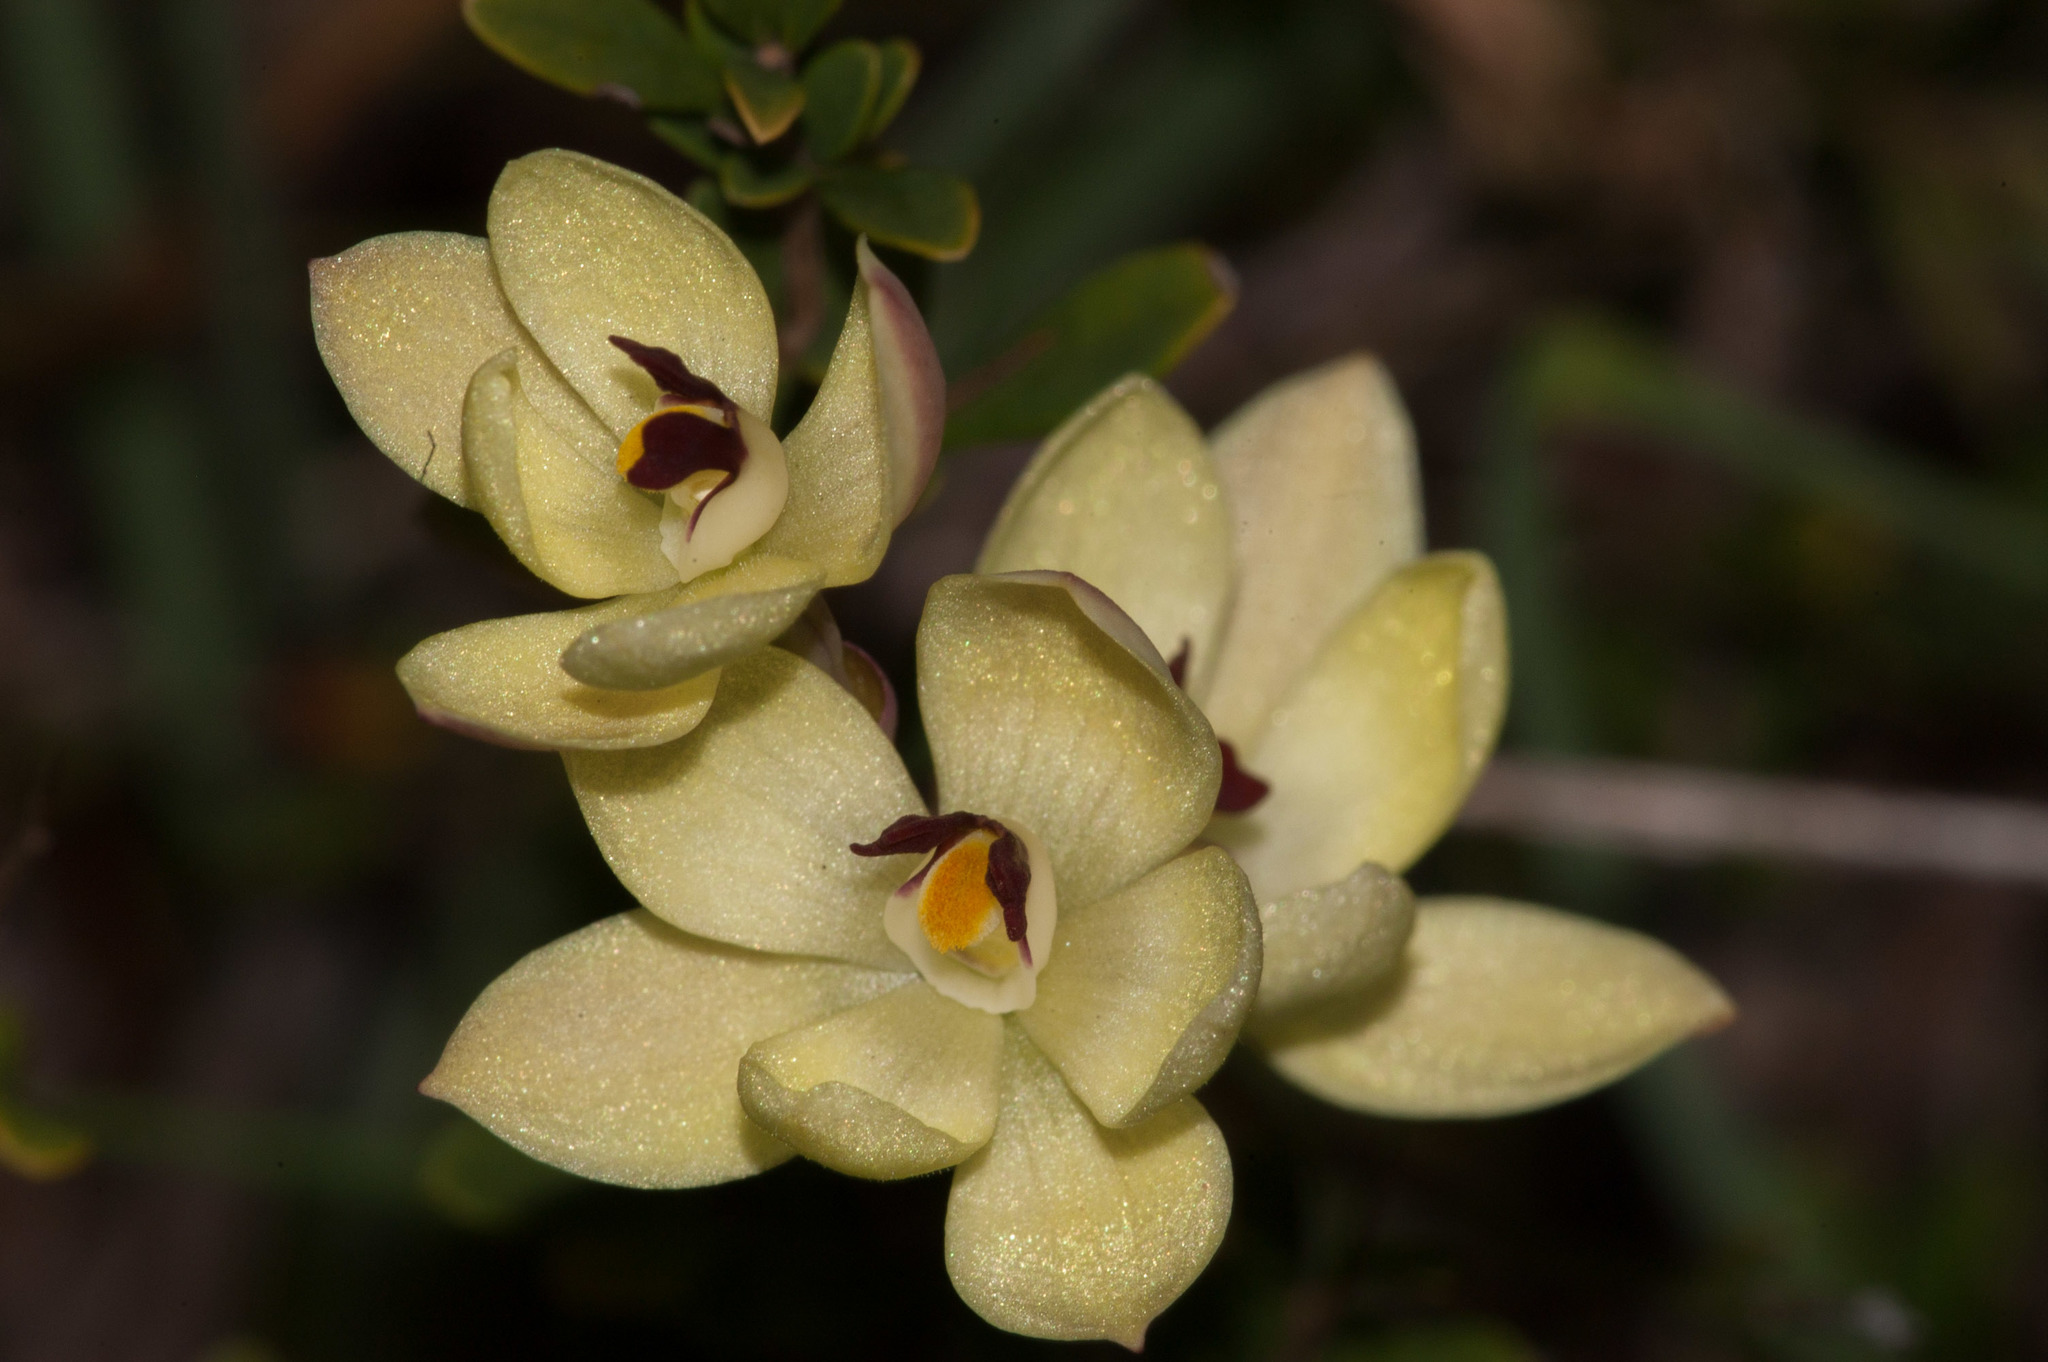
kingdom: Plantae
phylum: Tracheophyta
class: Liliopsida
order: Asparagales
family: Orchidaceae
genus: Thelymitra
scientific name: Thelymitra antennifera
